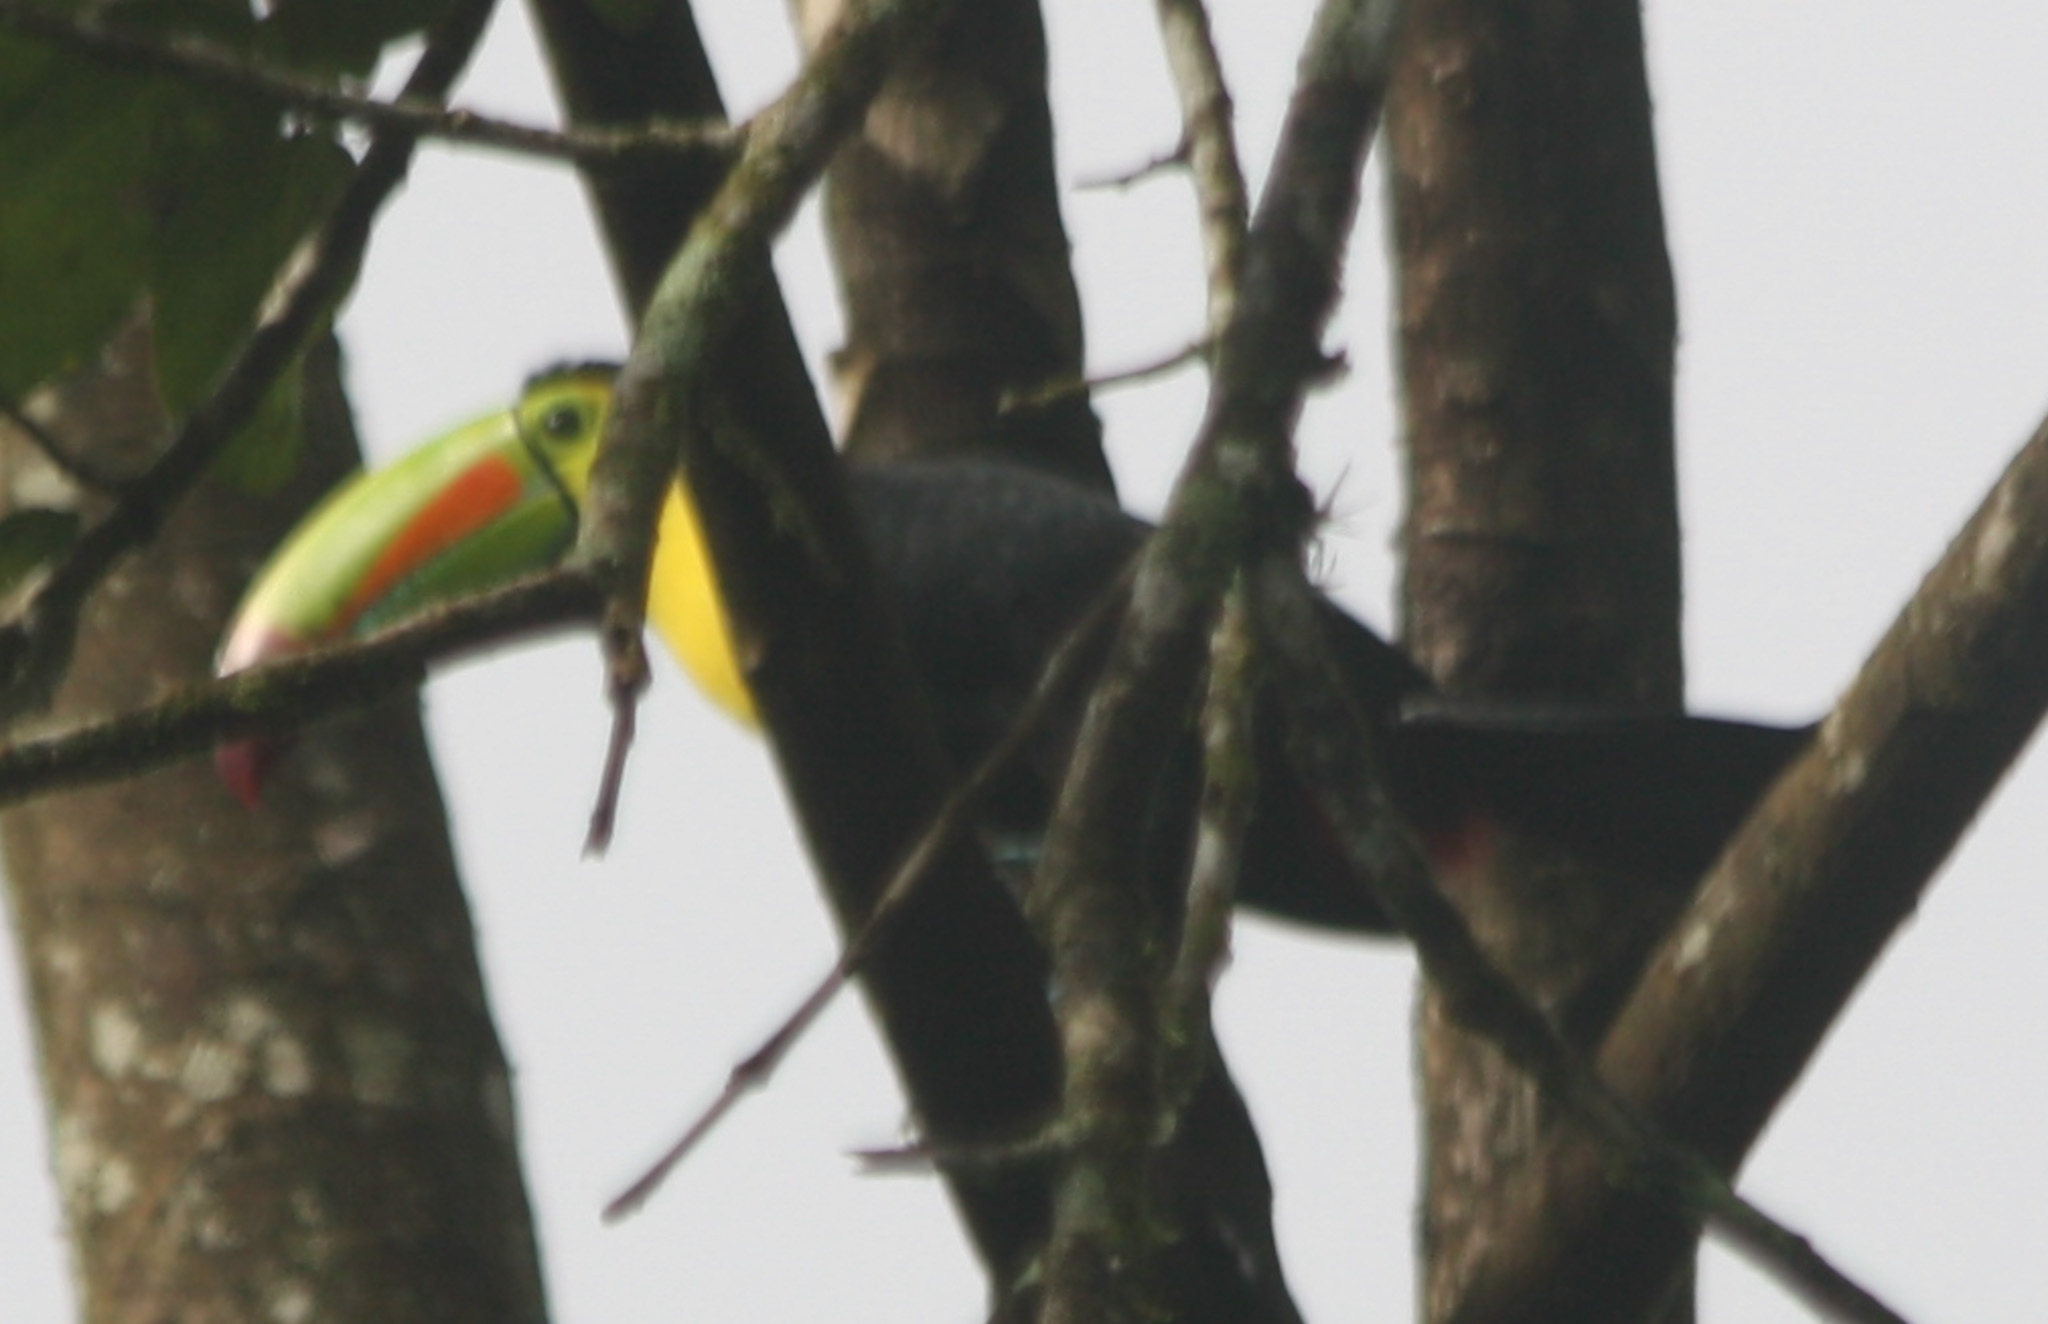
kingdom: Animalia
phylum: Chordata
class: Aves
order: Passeriformes
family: Thraupidae
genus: Tangara
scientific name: Tangara gyrola
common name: Bay-headed tanager
